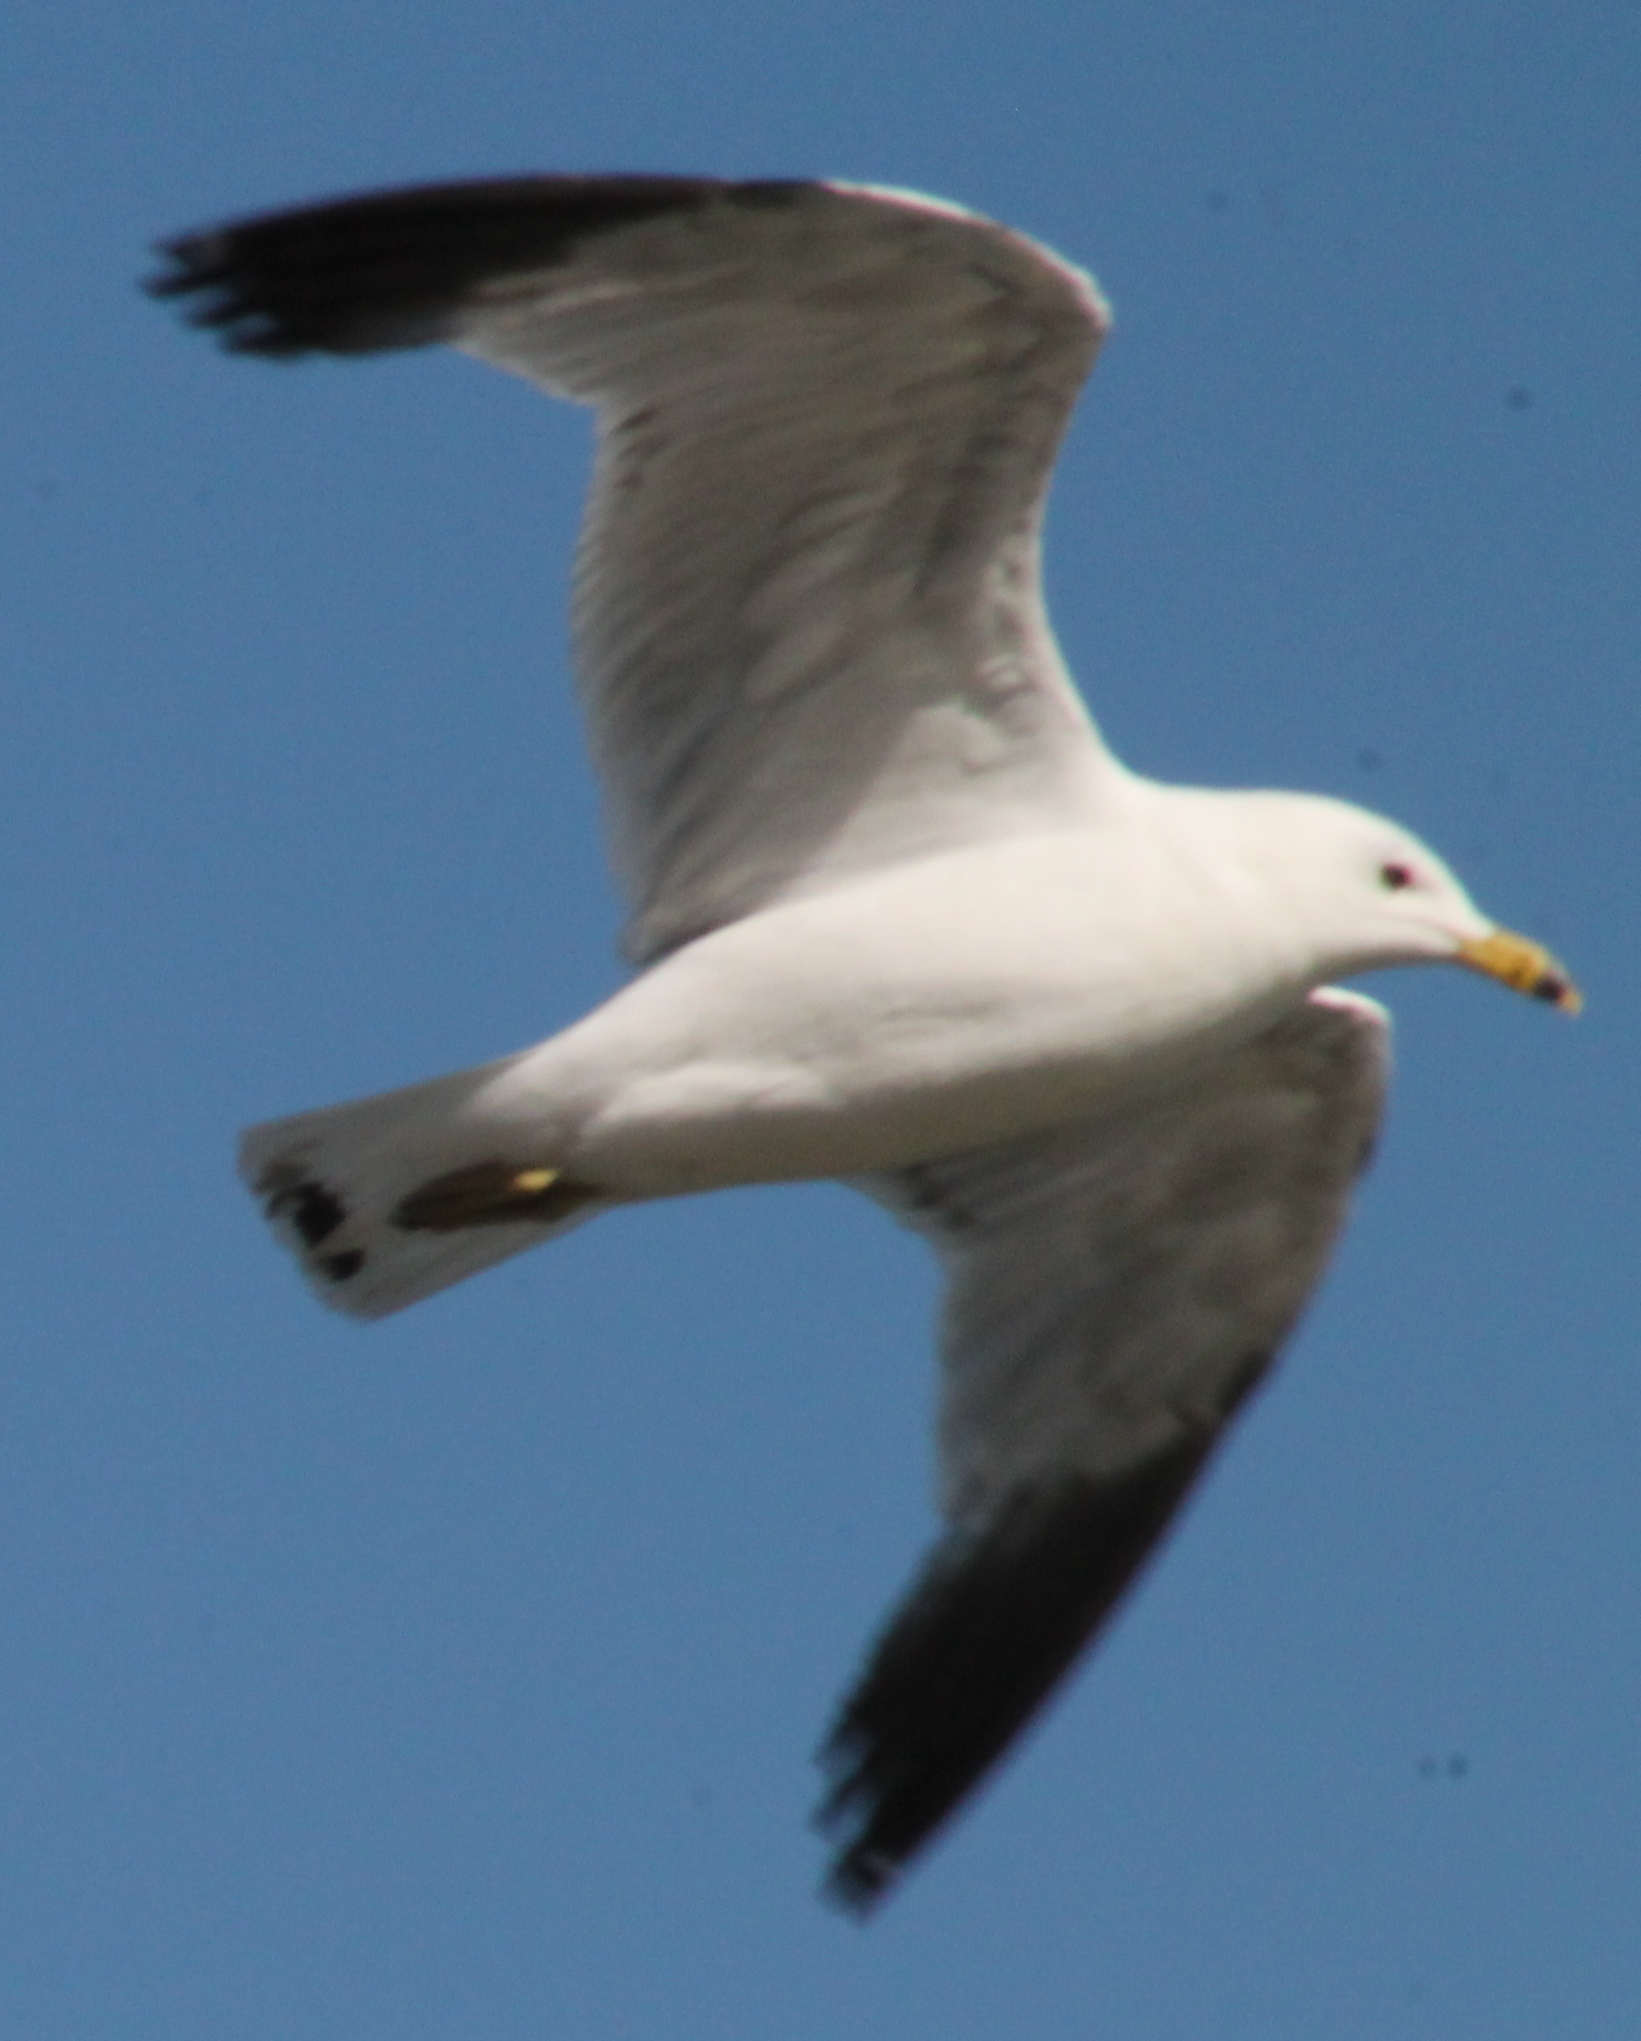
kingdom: Animalia
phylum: Chordata
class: Aves
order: Charadriiformes
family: Laridae
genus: Larus
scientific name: Larus delawarensis
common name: Ring-billed gull
